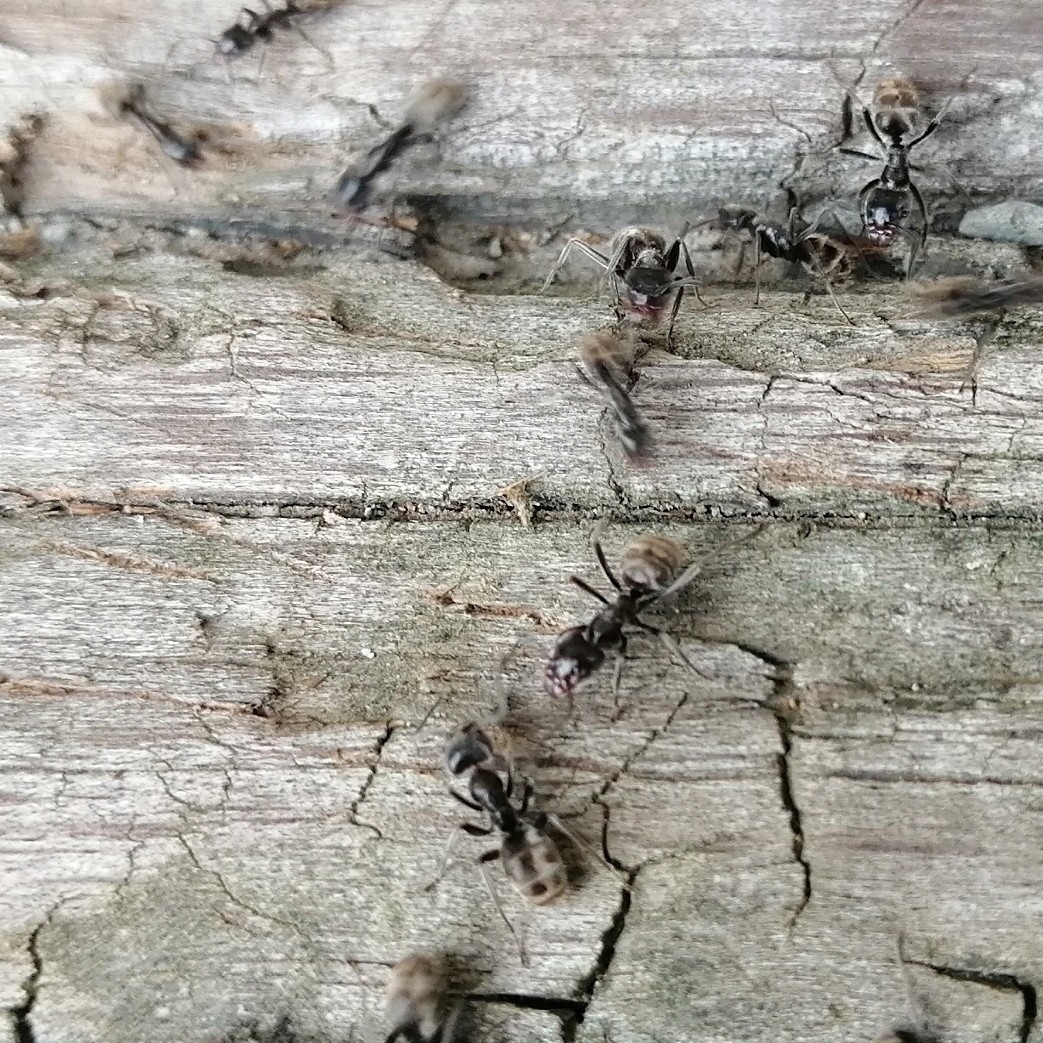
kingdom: Animalia
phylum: Arthropoda
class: Insecta
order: Hymenoptera
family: Formicidae
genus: Liometopum
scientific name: Liometopum apiculatum
